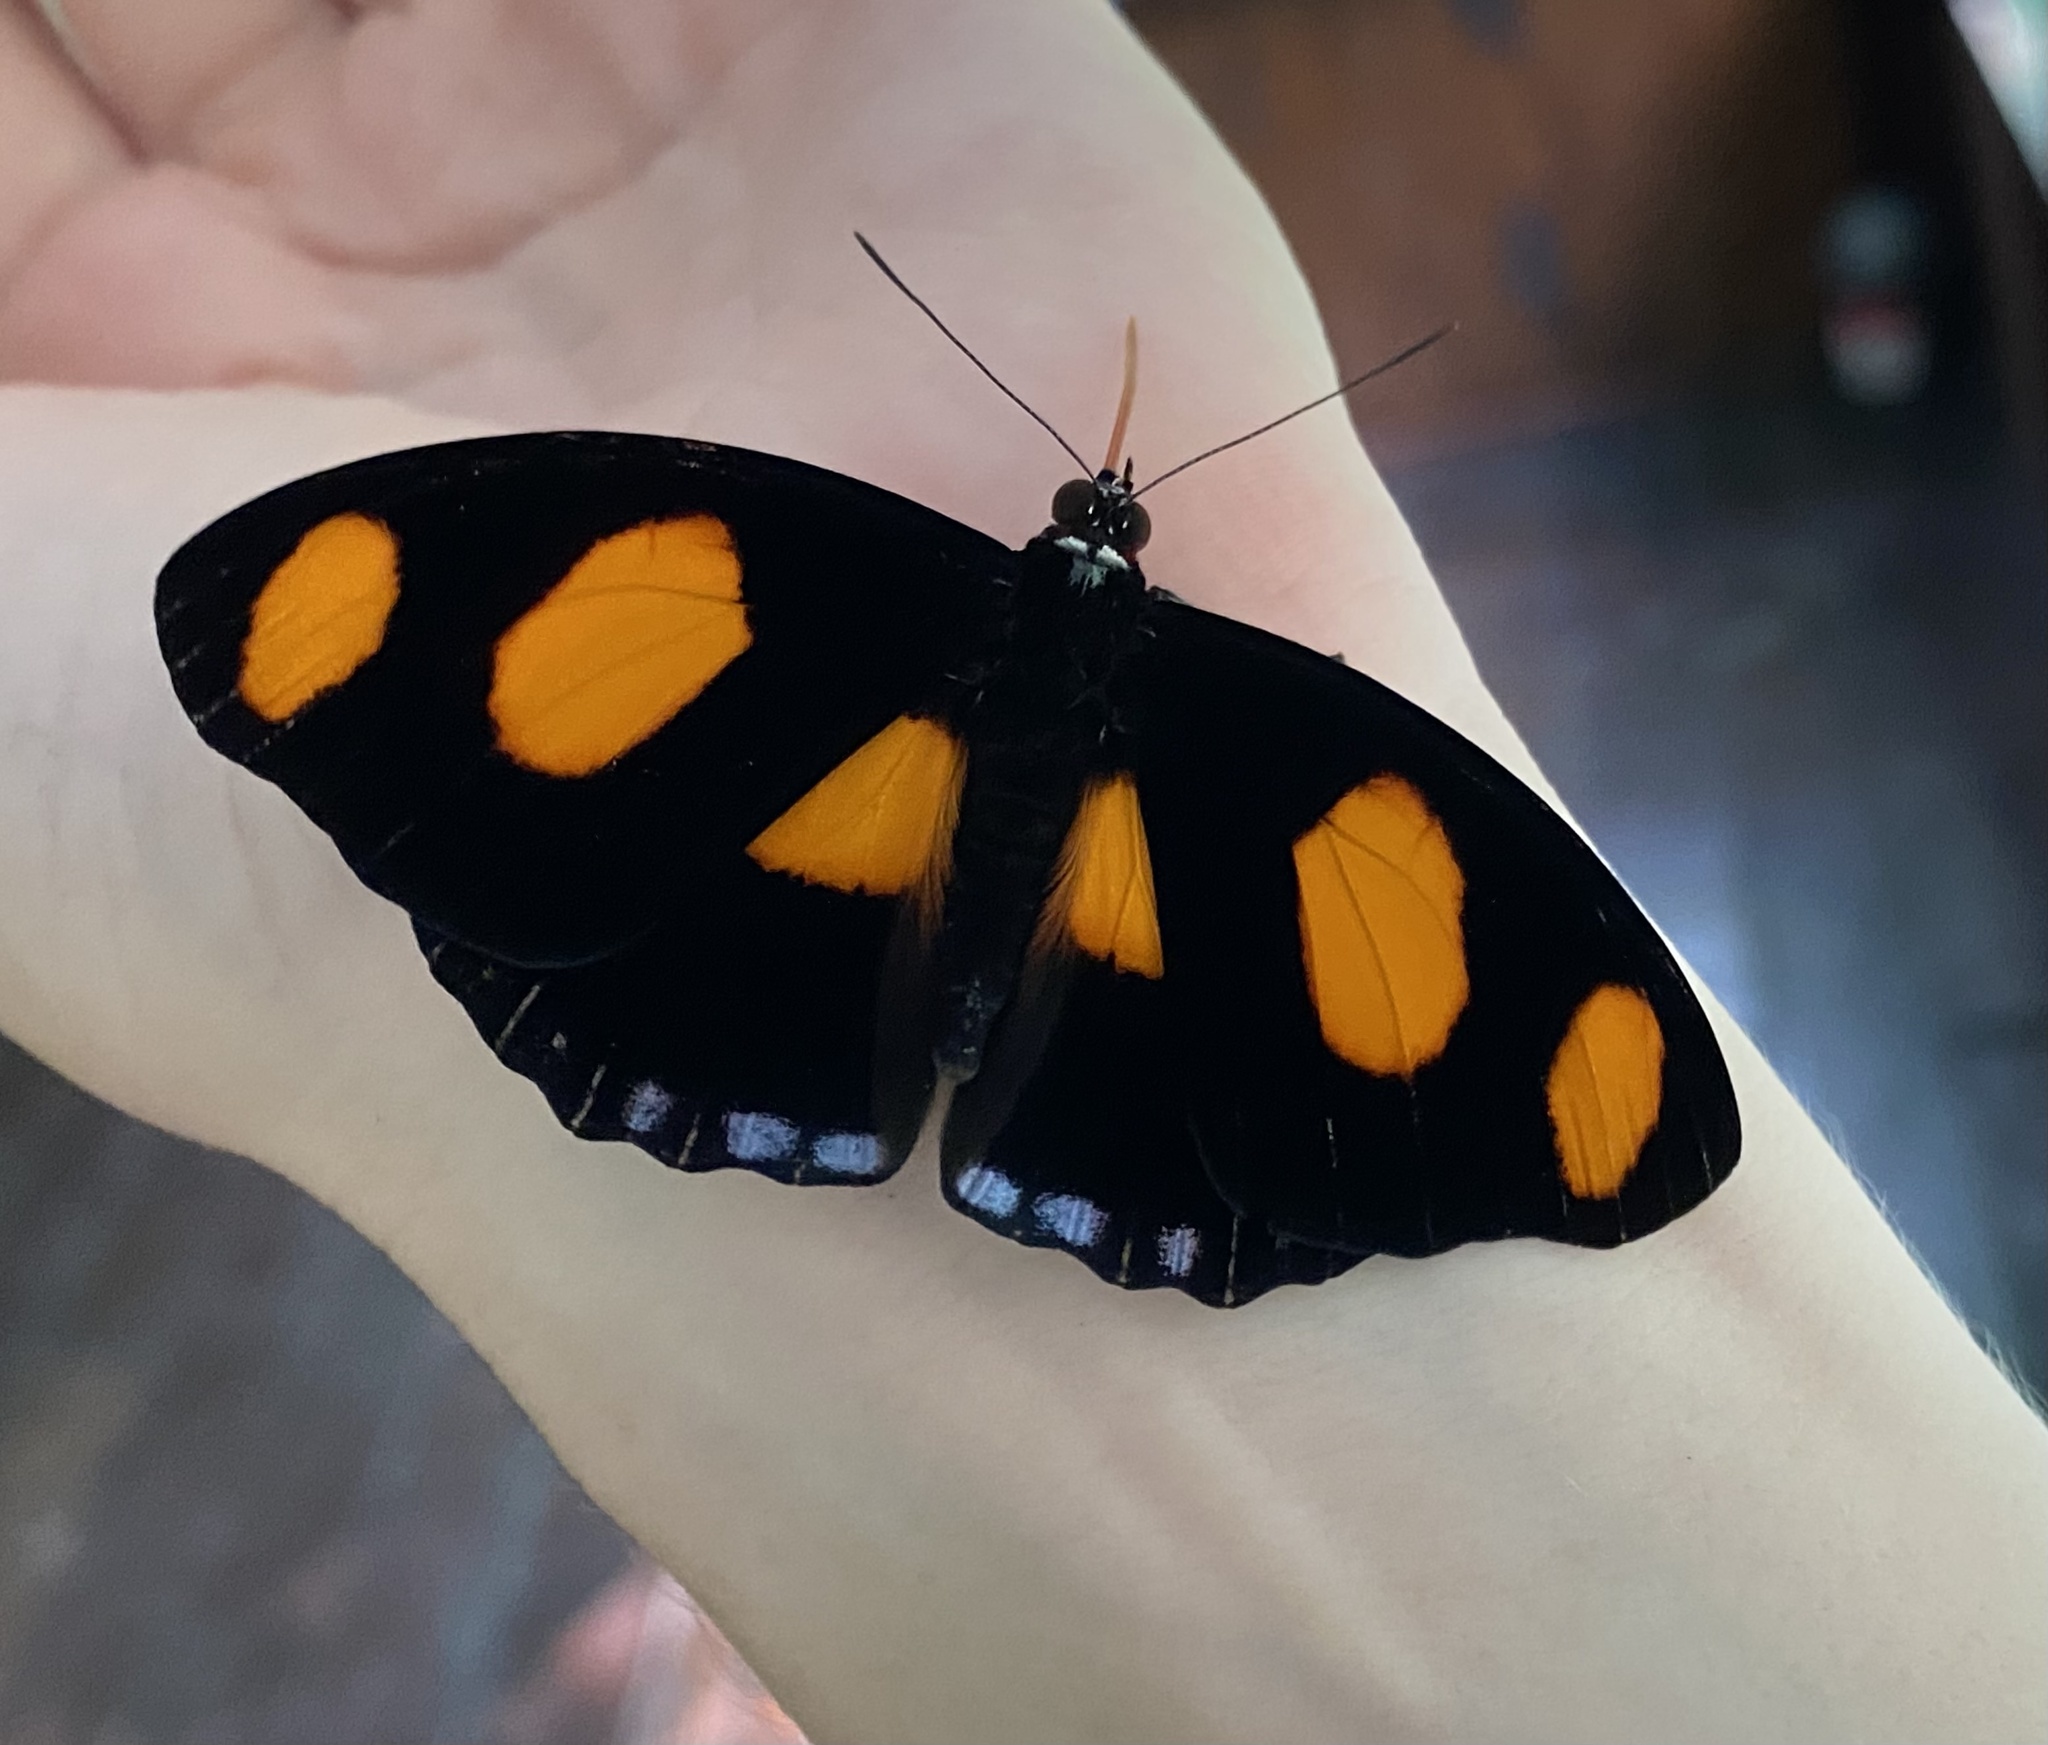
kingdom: Animalia
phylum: Arthropoda
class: Insecta
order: Lepidoptera
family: Nymphalidae
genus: Catonephele
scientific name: Catonephele numilia
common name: Blue-frosted banner
